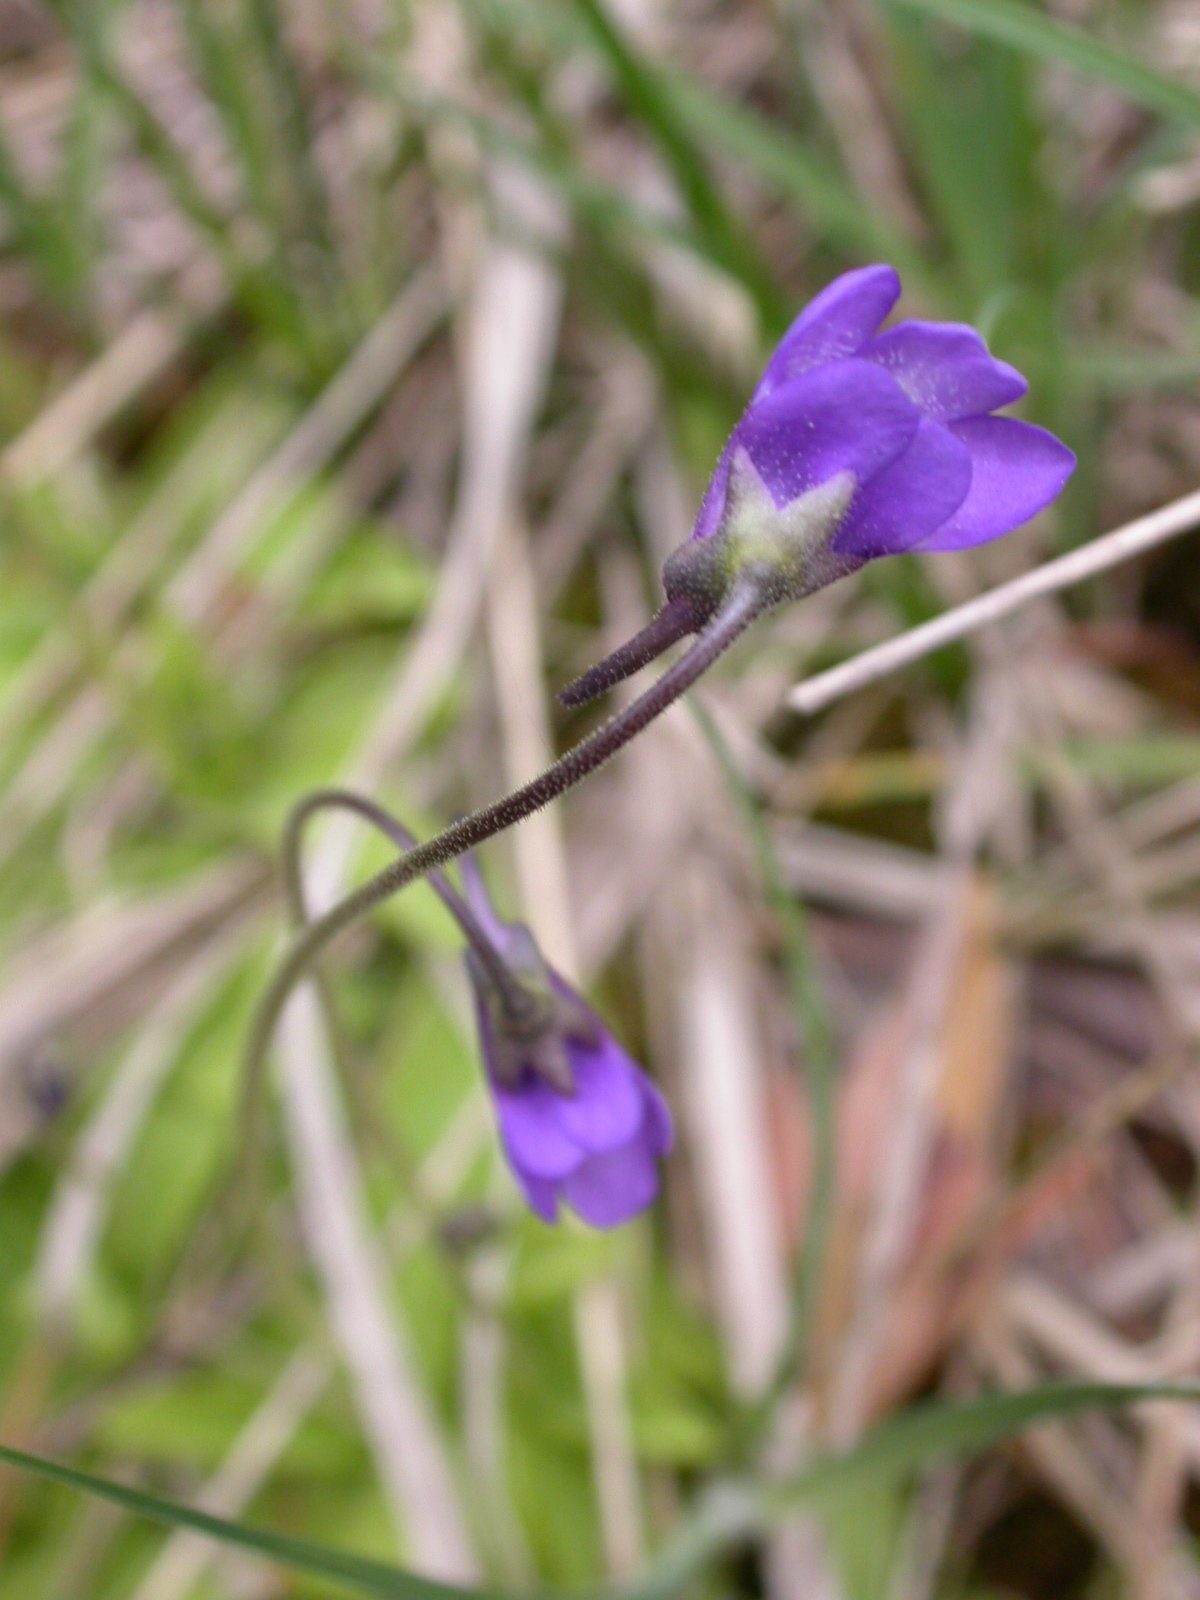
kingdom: Plantae
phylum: Tracheophyta
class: Magnoliopsida
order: Lamiales
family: Lentibulariaceae
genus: Pinguicula
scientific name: Pinguicula vulgaris
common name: Common butterwort
